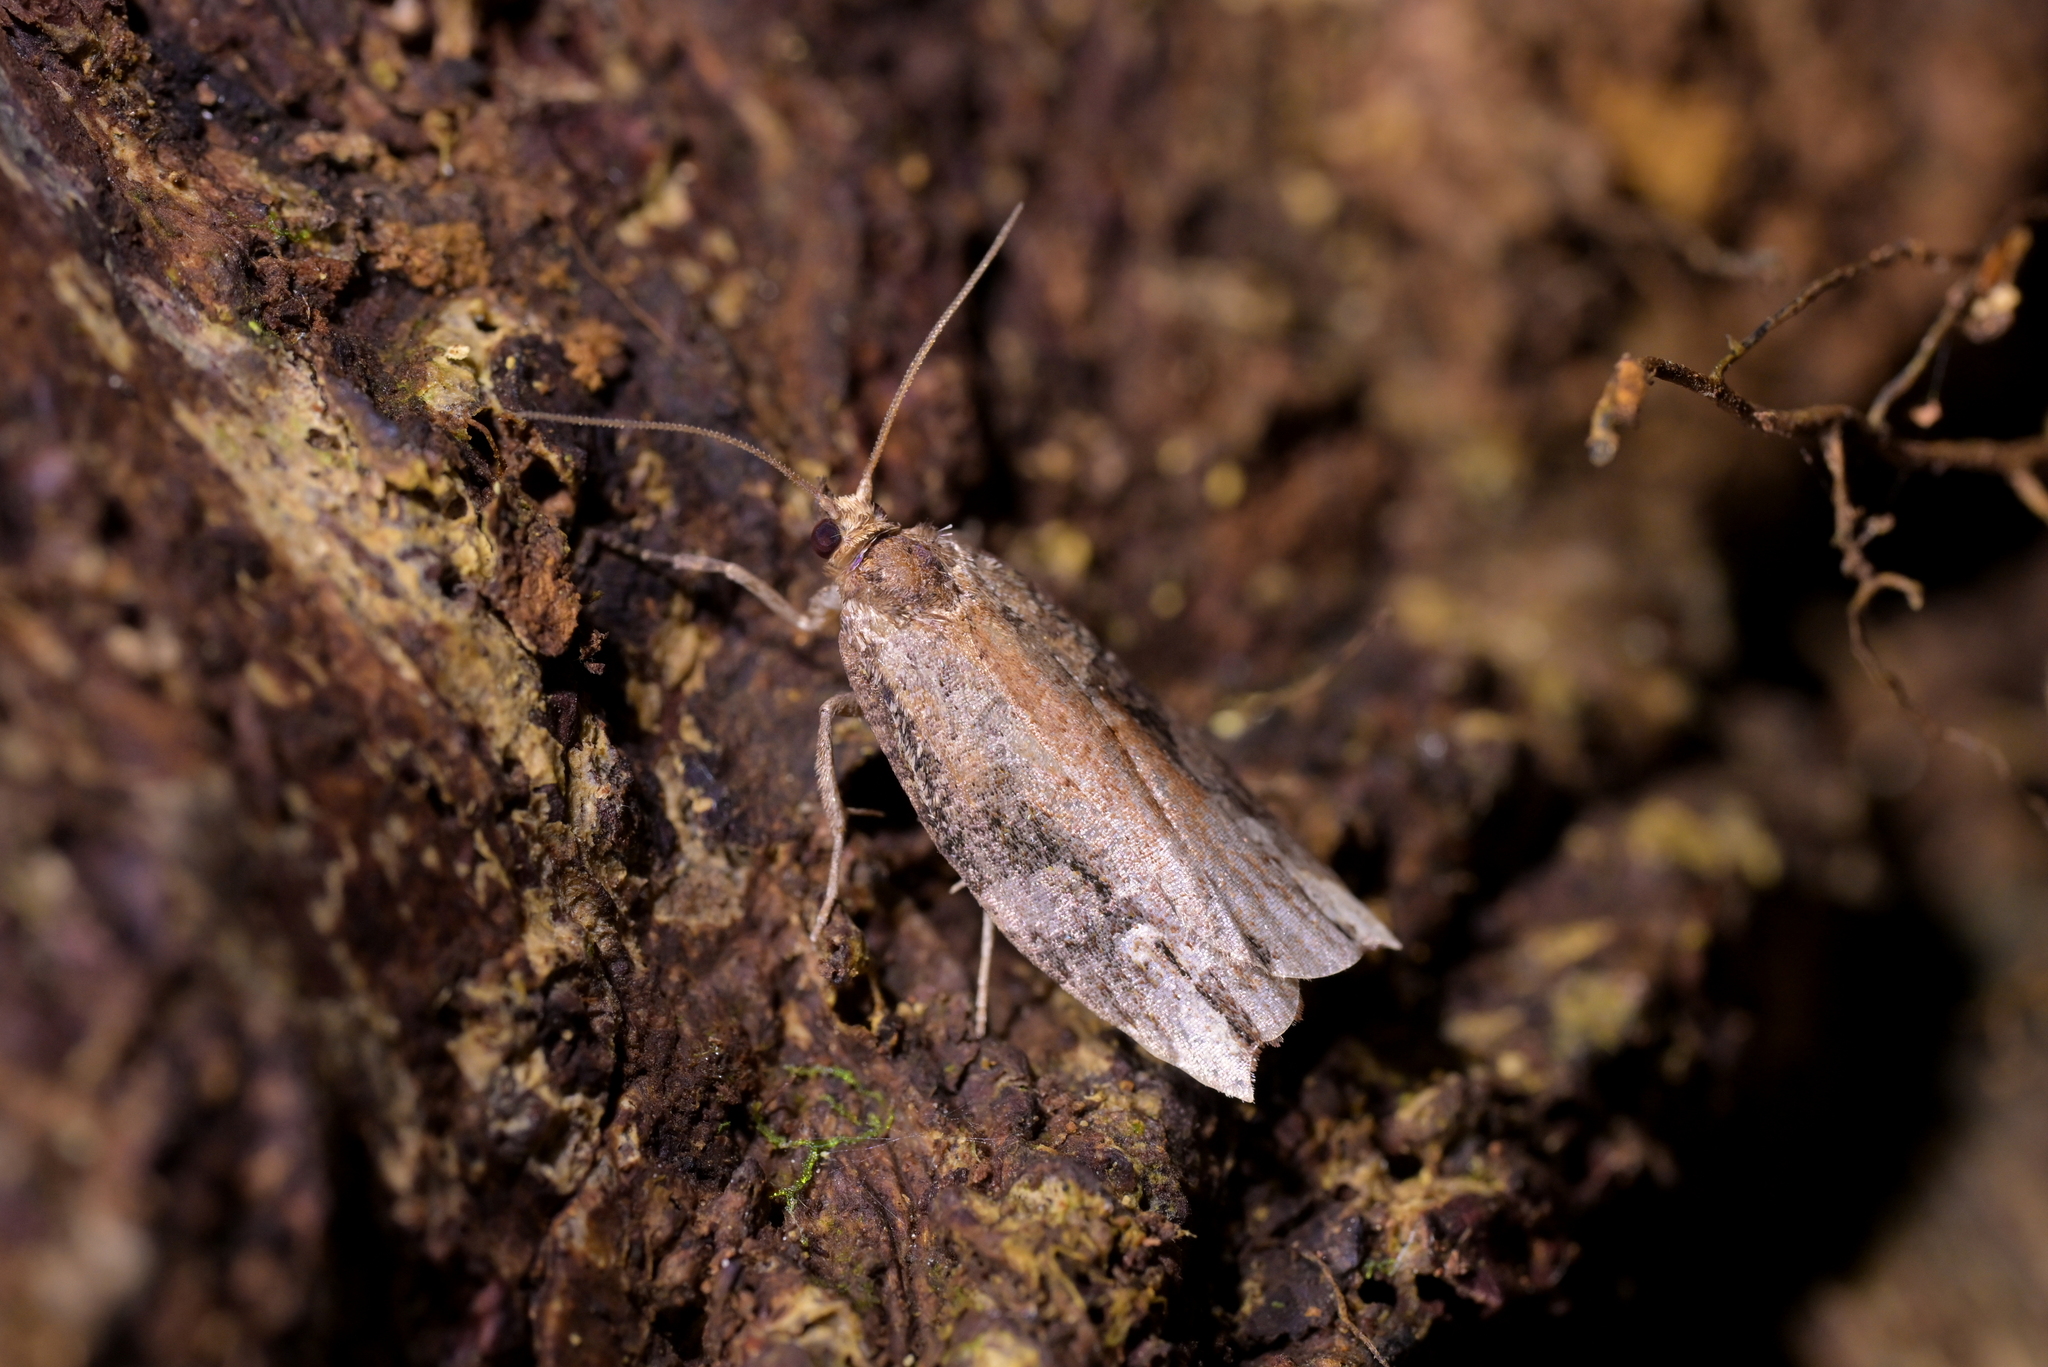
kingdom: Animalia
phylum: Arthropoda
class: Insecta
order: Lepidoptera
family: Tortricidae
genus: Epalxiphora
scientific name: Epalxiphora axenana
